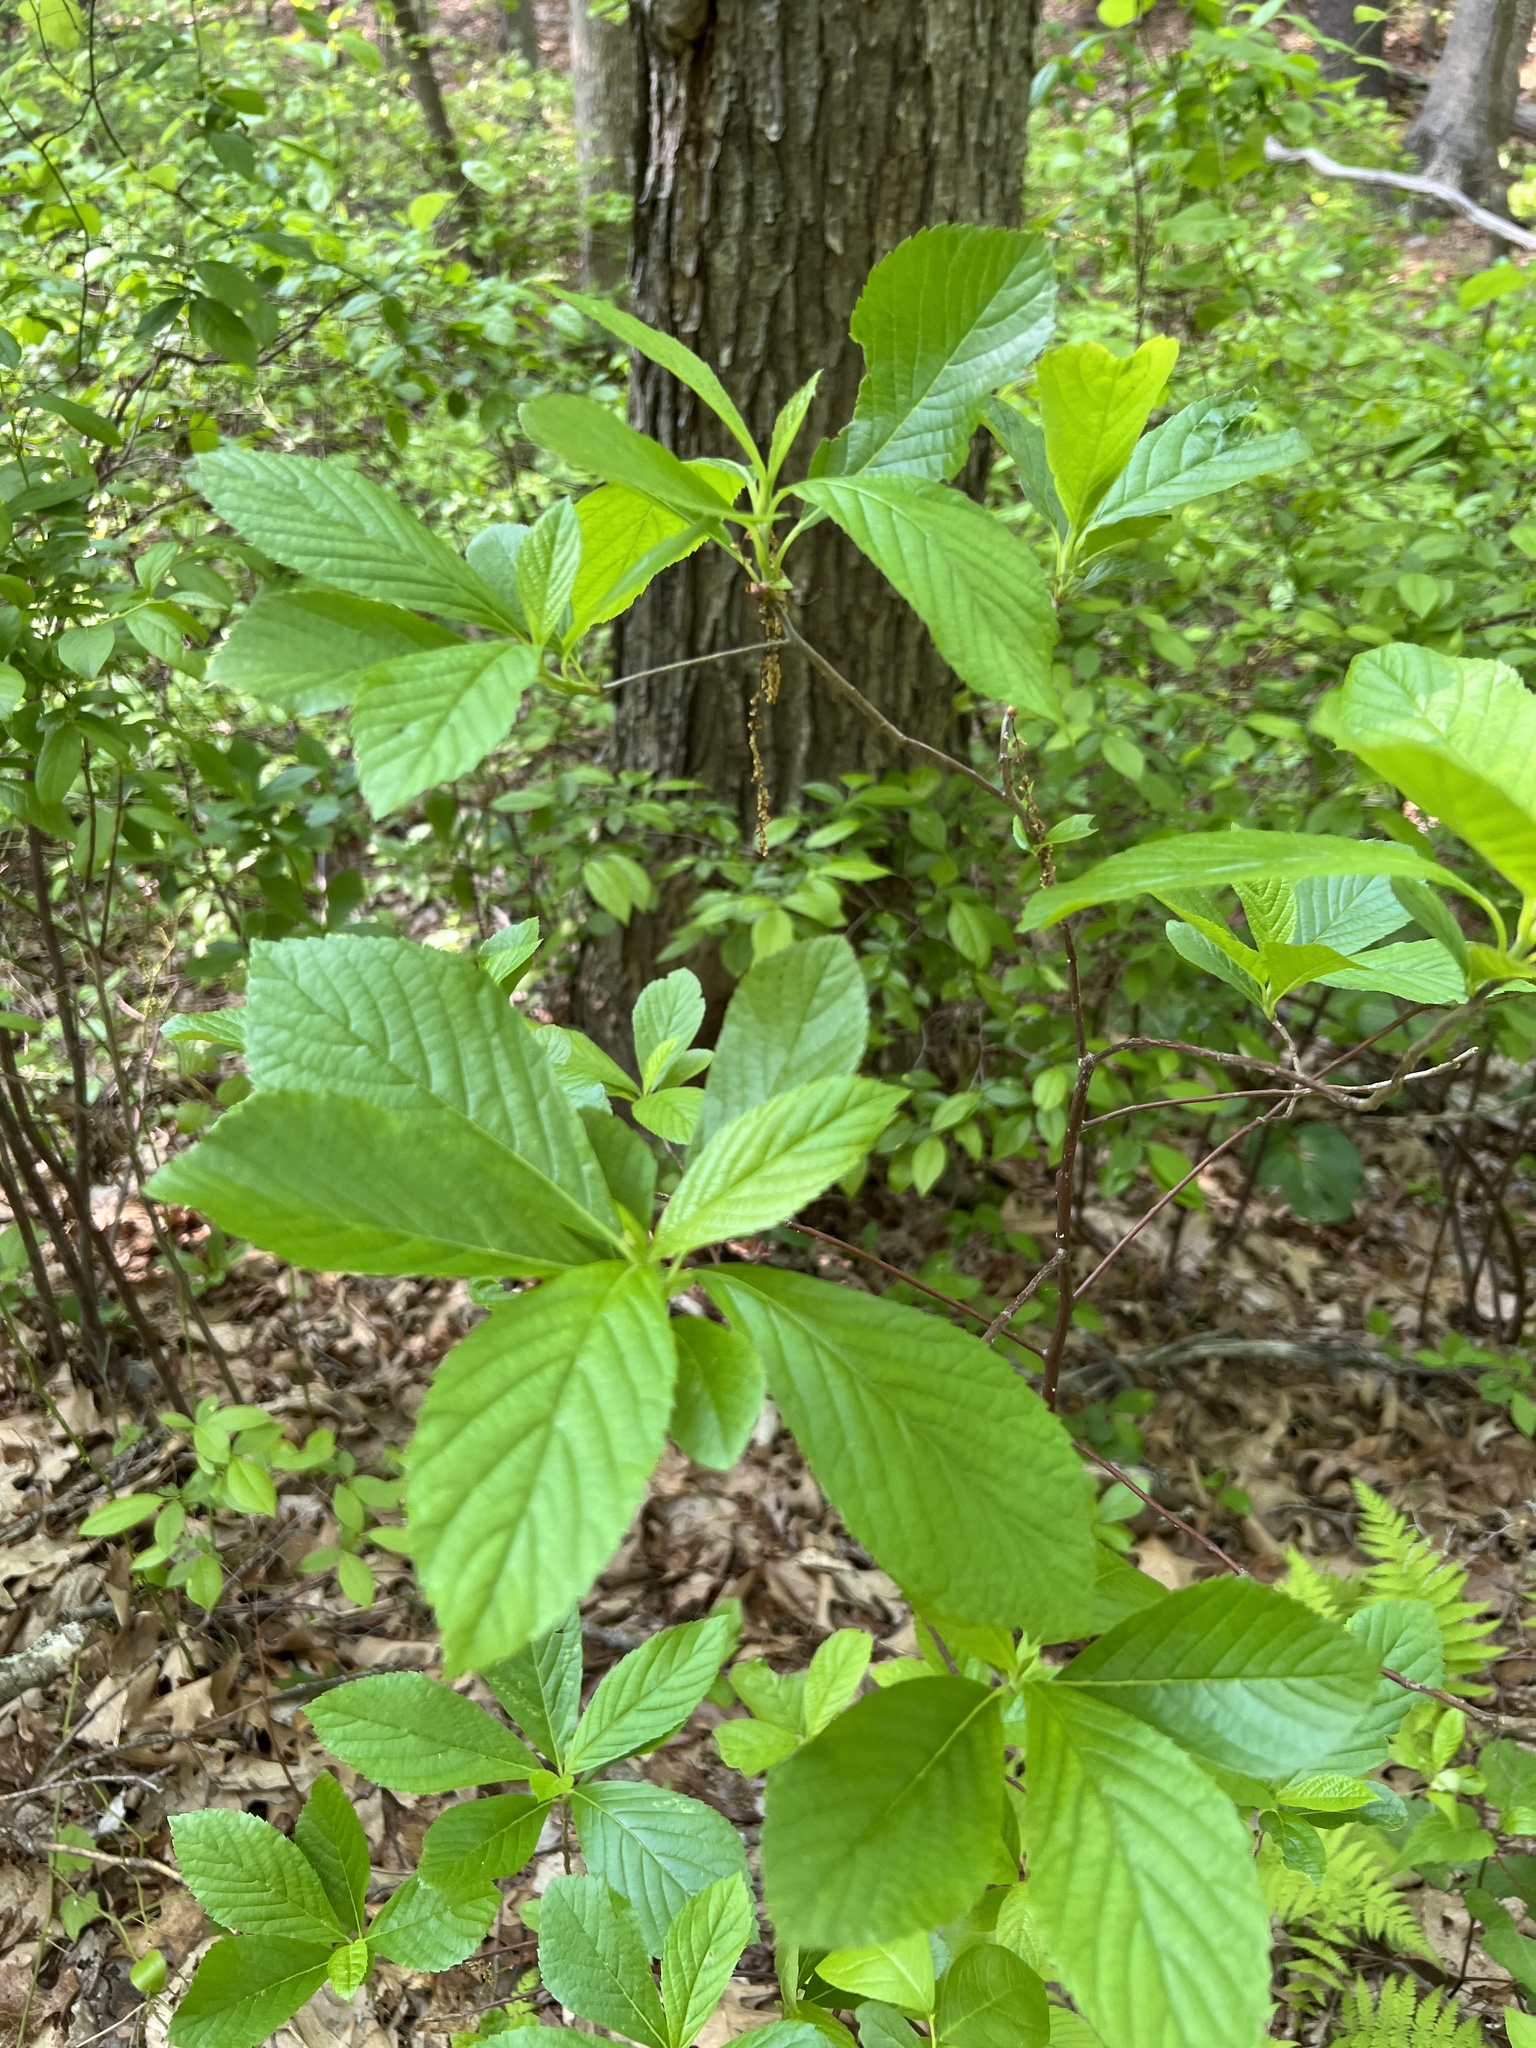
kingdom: Plantae
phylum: Tracheophyta
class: Magnoliopsida
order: Ericales
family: Clethraceae
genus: Clethra
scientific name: Clethra alnifolia
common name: Sweet pepperbush
